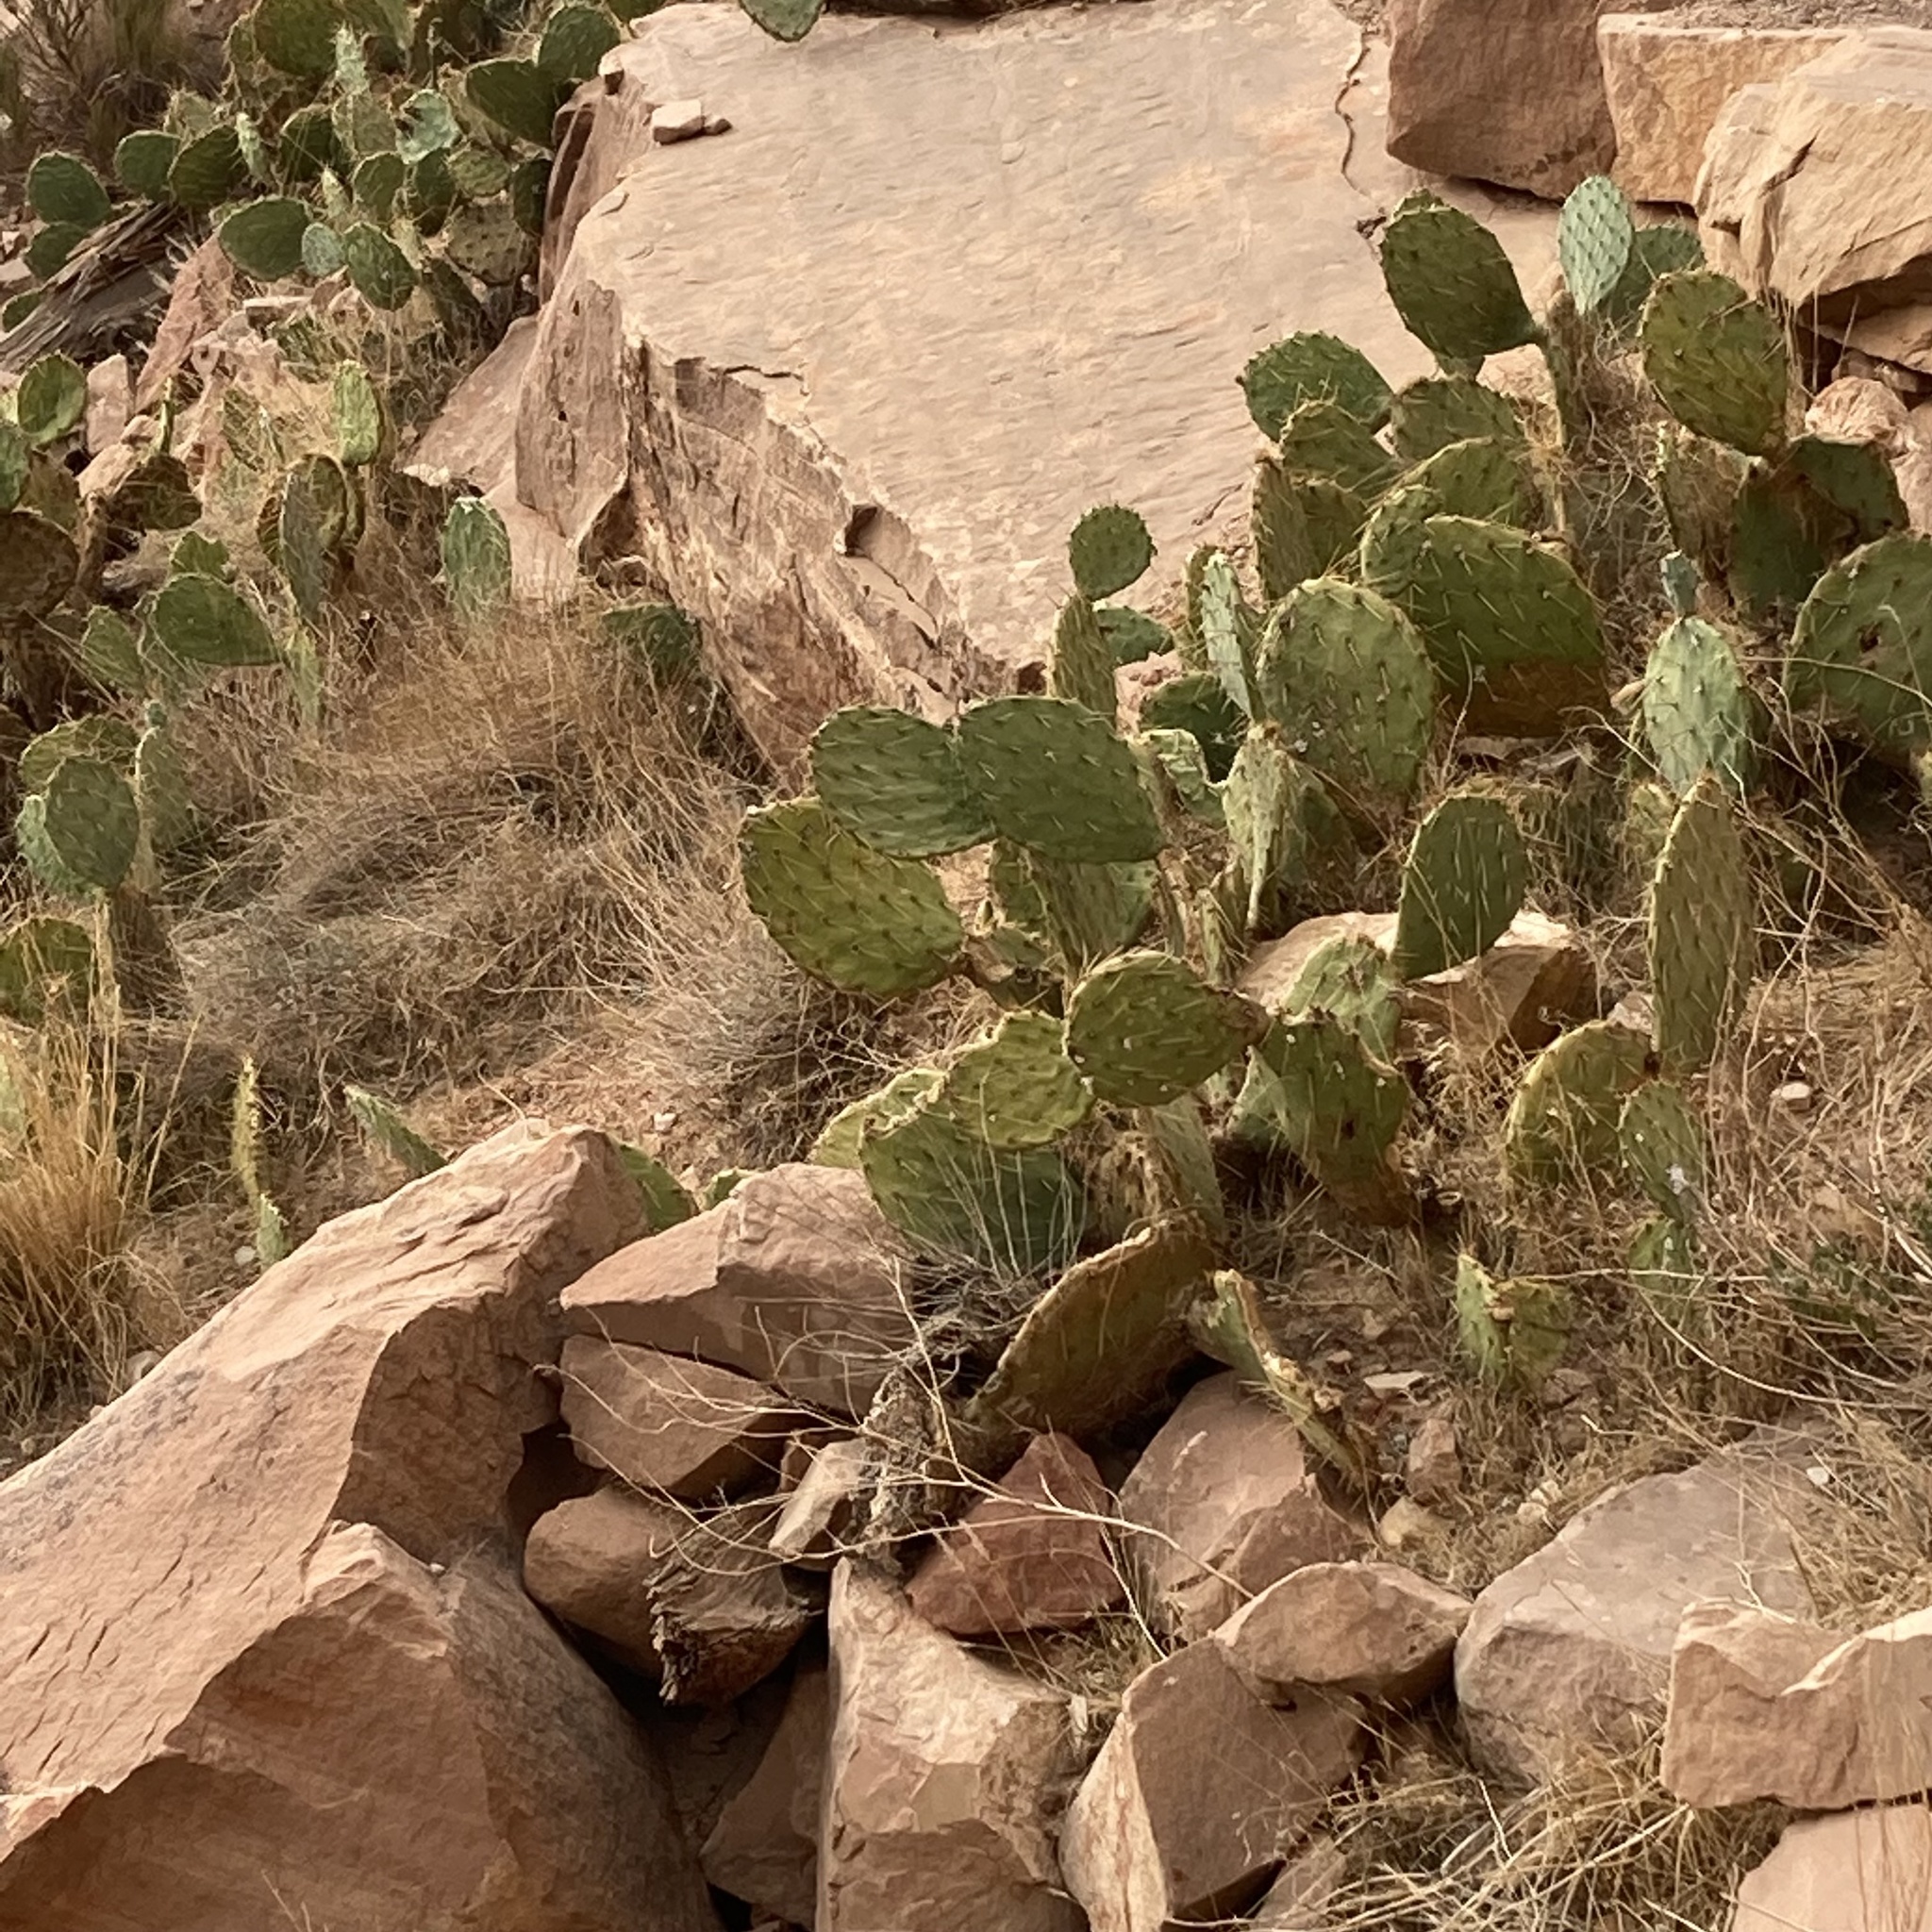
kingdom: Plantae
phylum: Tracheophyta
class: Magnoliopsida
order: Caryophyllales
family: Cactaceae
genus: Opuntia
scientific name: Opuntia engelmannii
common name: Cactus-apple
